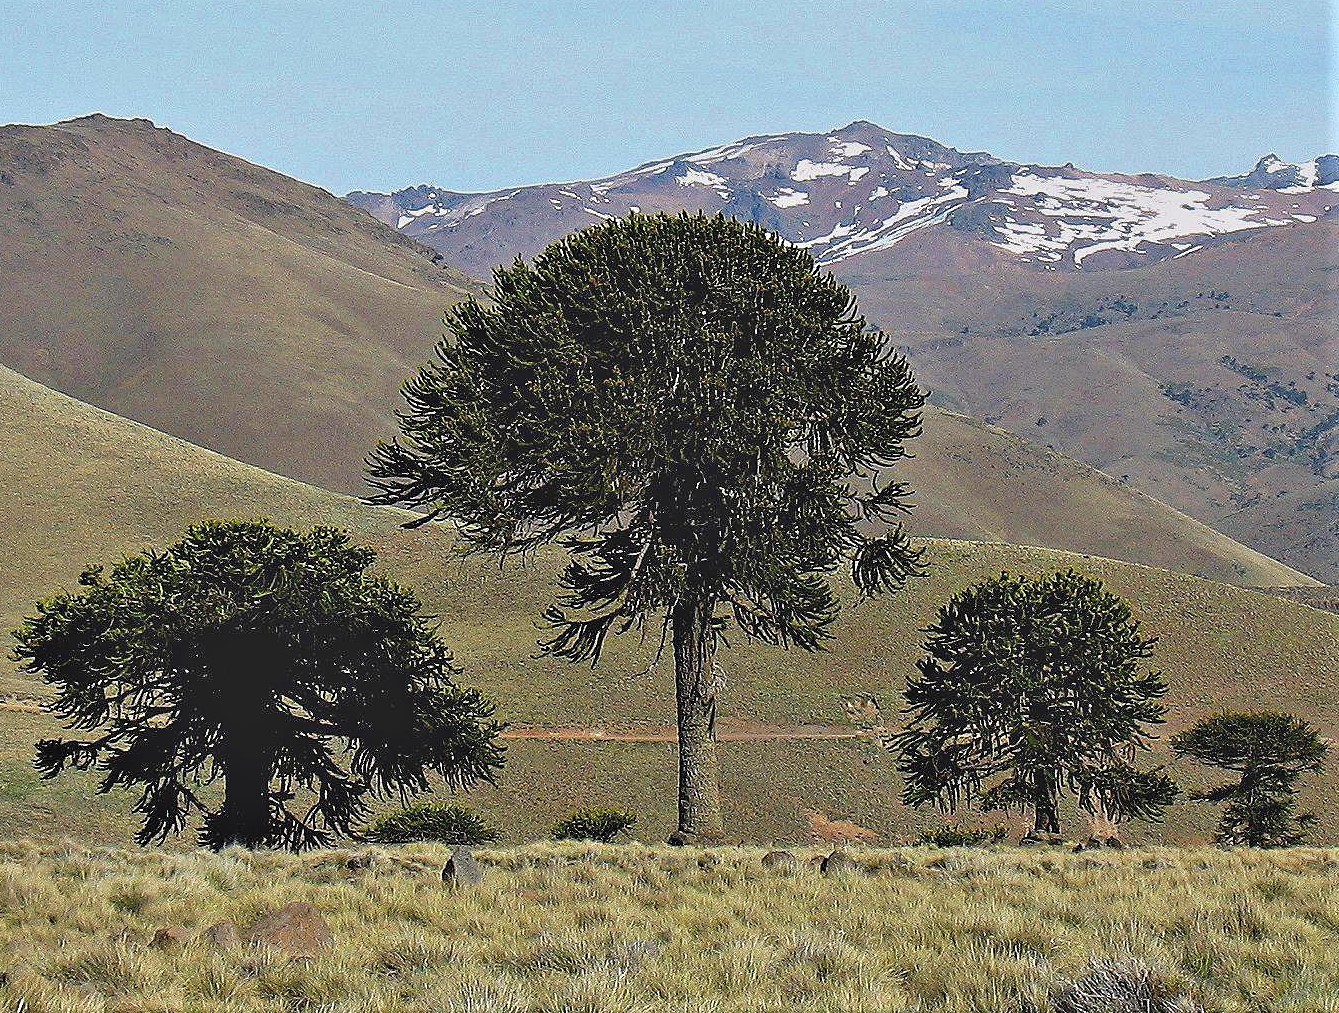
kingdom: Plantae
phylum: Tracheophyta
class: Pinopsida
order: Pinales
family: Araucariaceae
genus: Araucaria
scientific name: Araucaria araucana
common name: Monkey-puzzle
